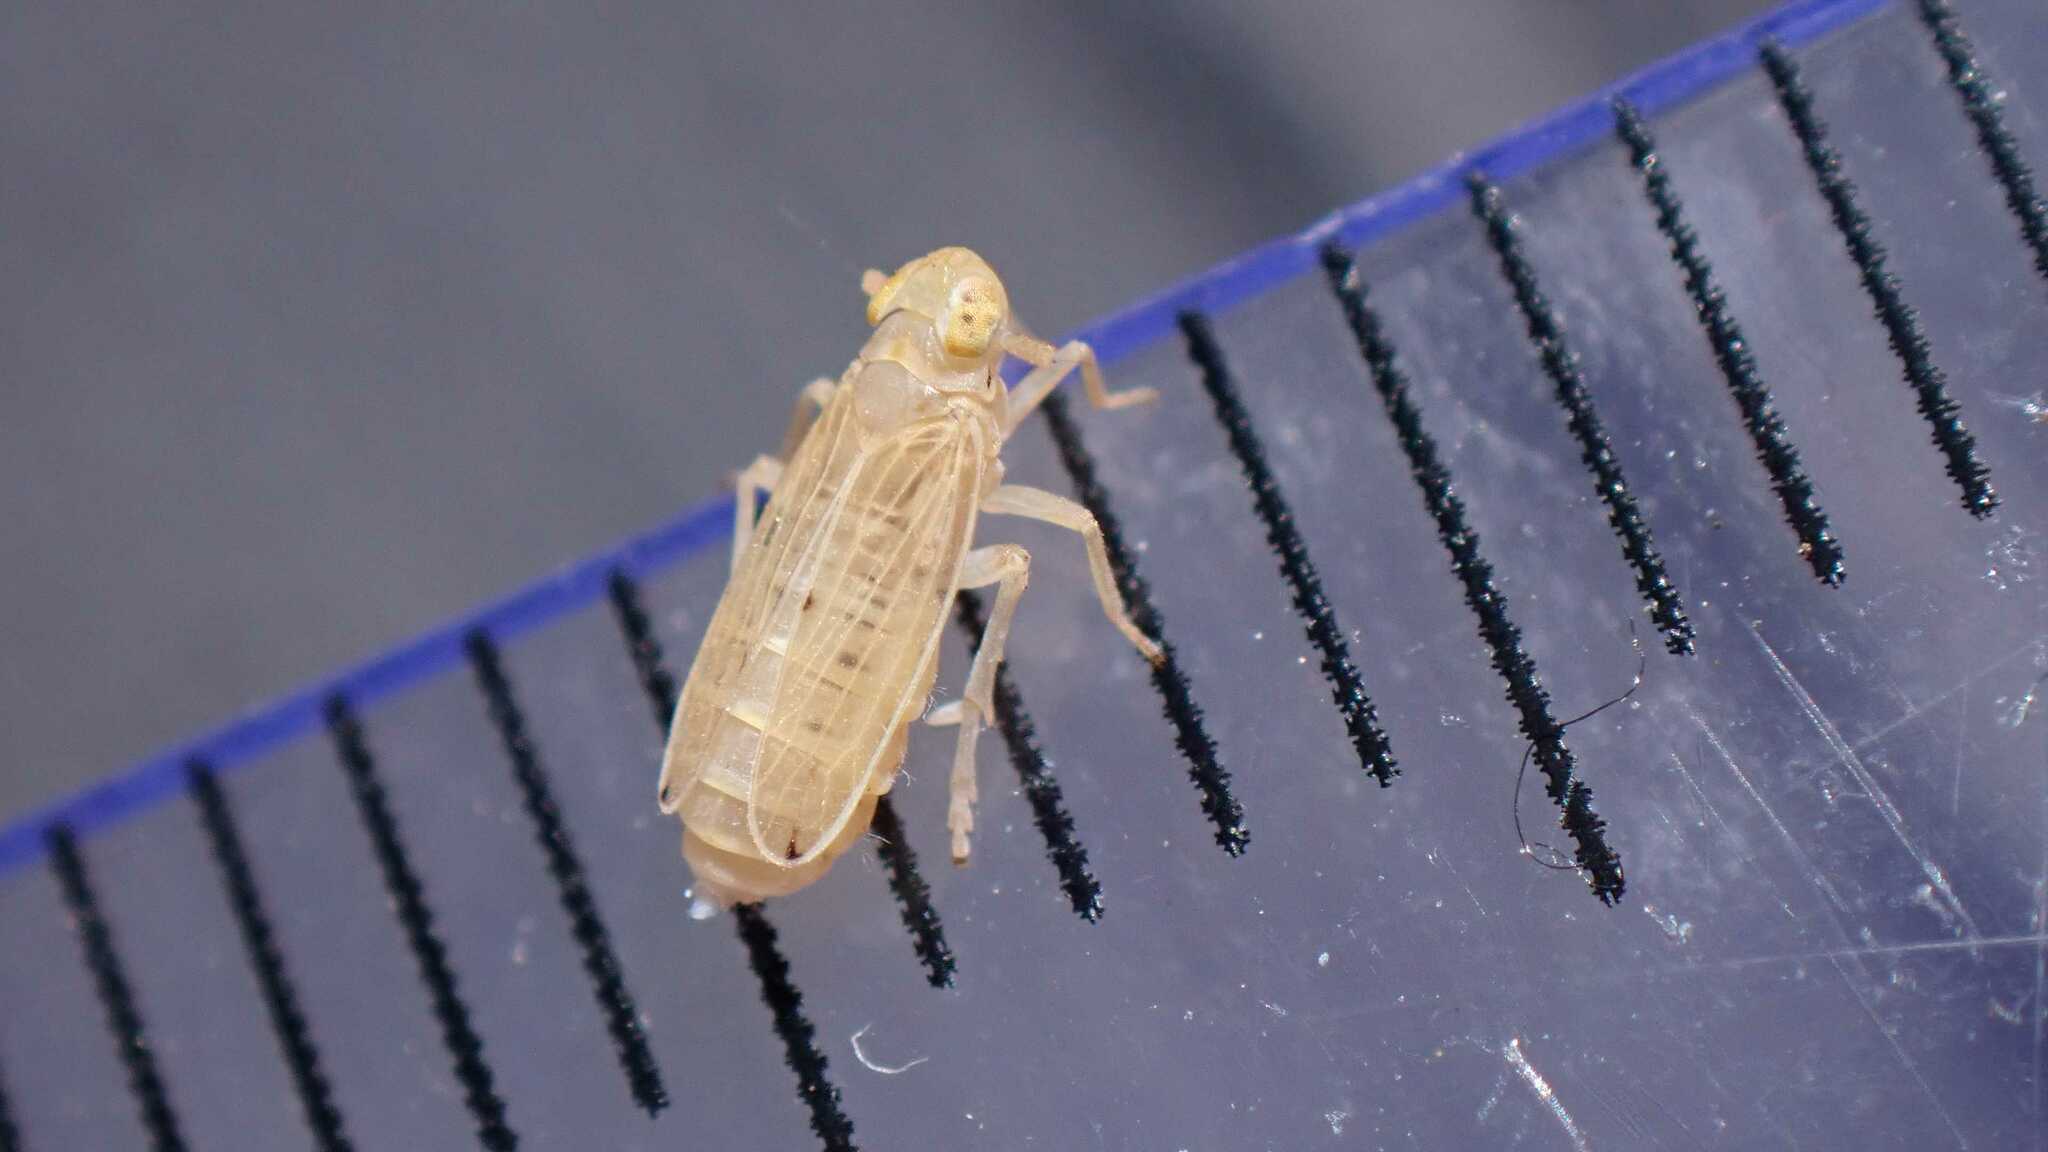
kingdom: Animalia
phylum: Arthropoda
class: Insecta
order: Hemiptera
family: Delphacidae
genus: Anakelisia
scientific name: Anakelisia fasciata
